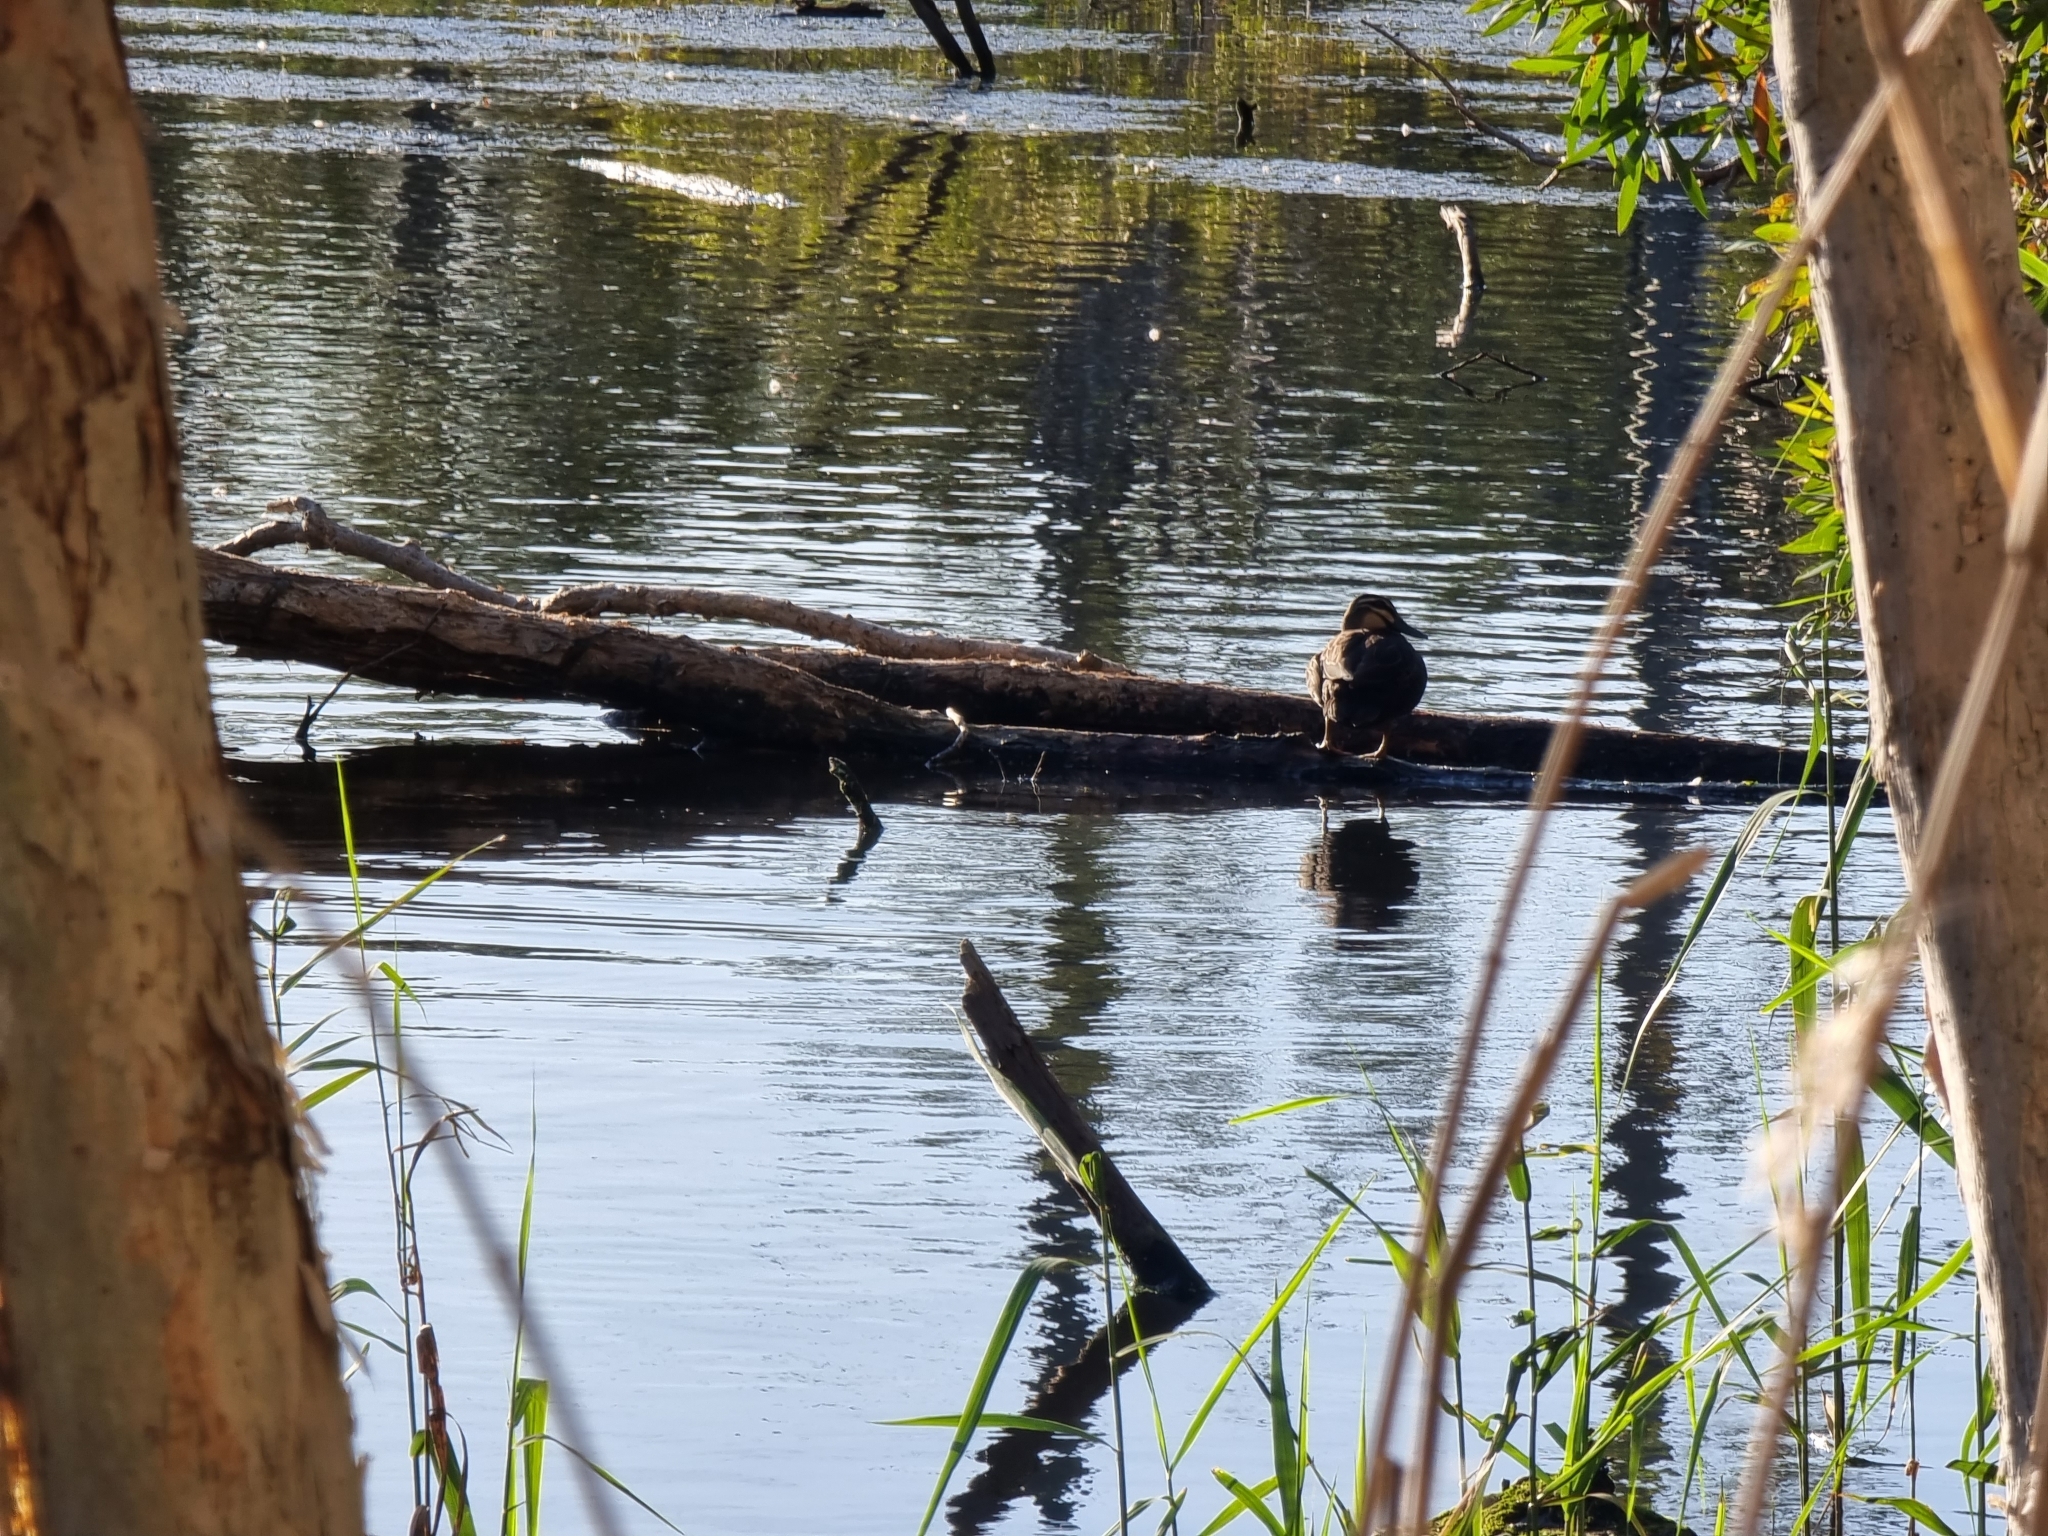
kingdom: Animalia
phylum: Chordata
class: Aves
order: Anseriformes
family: Anatidae
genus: Anas
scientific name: Anas superciliosa
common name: Pacific black duck
